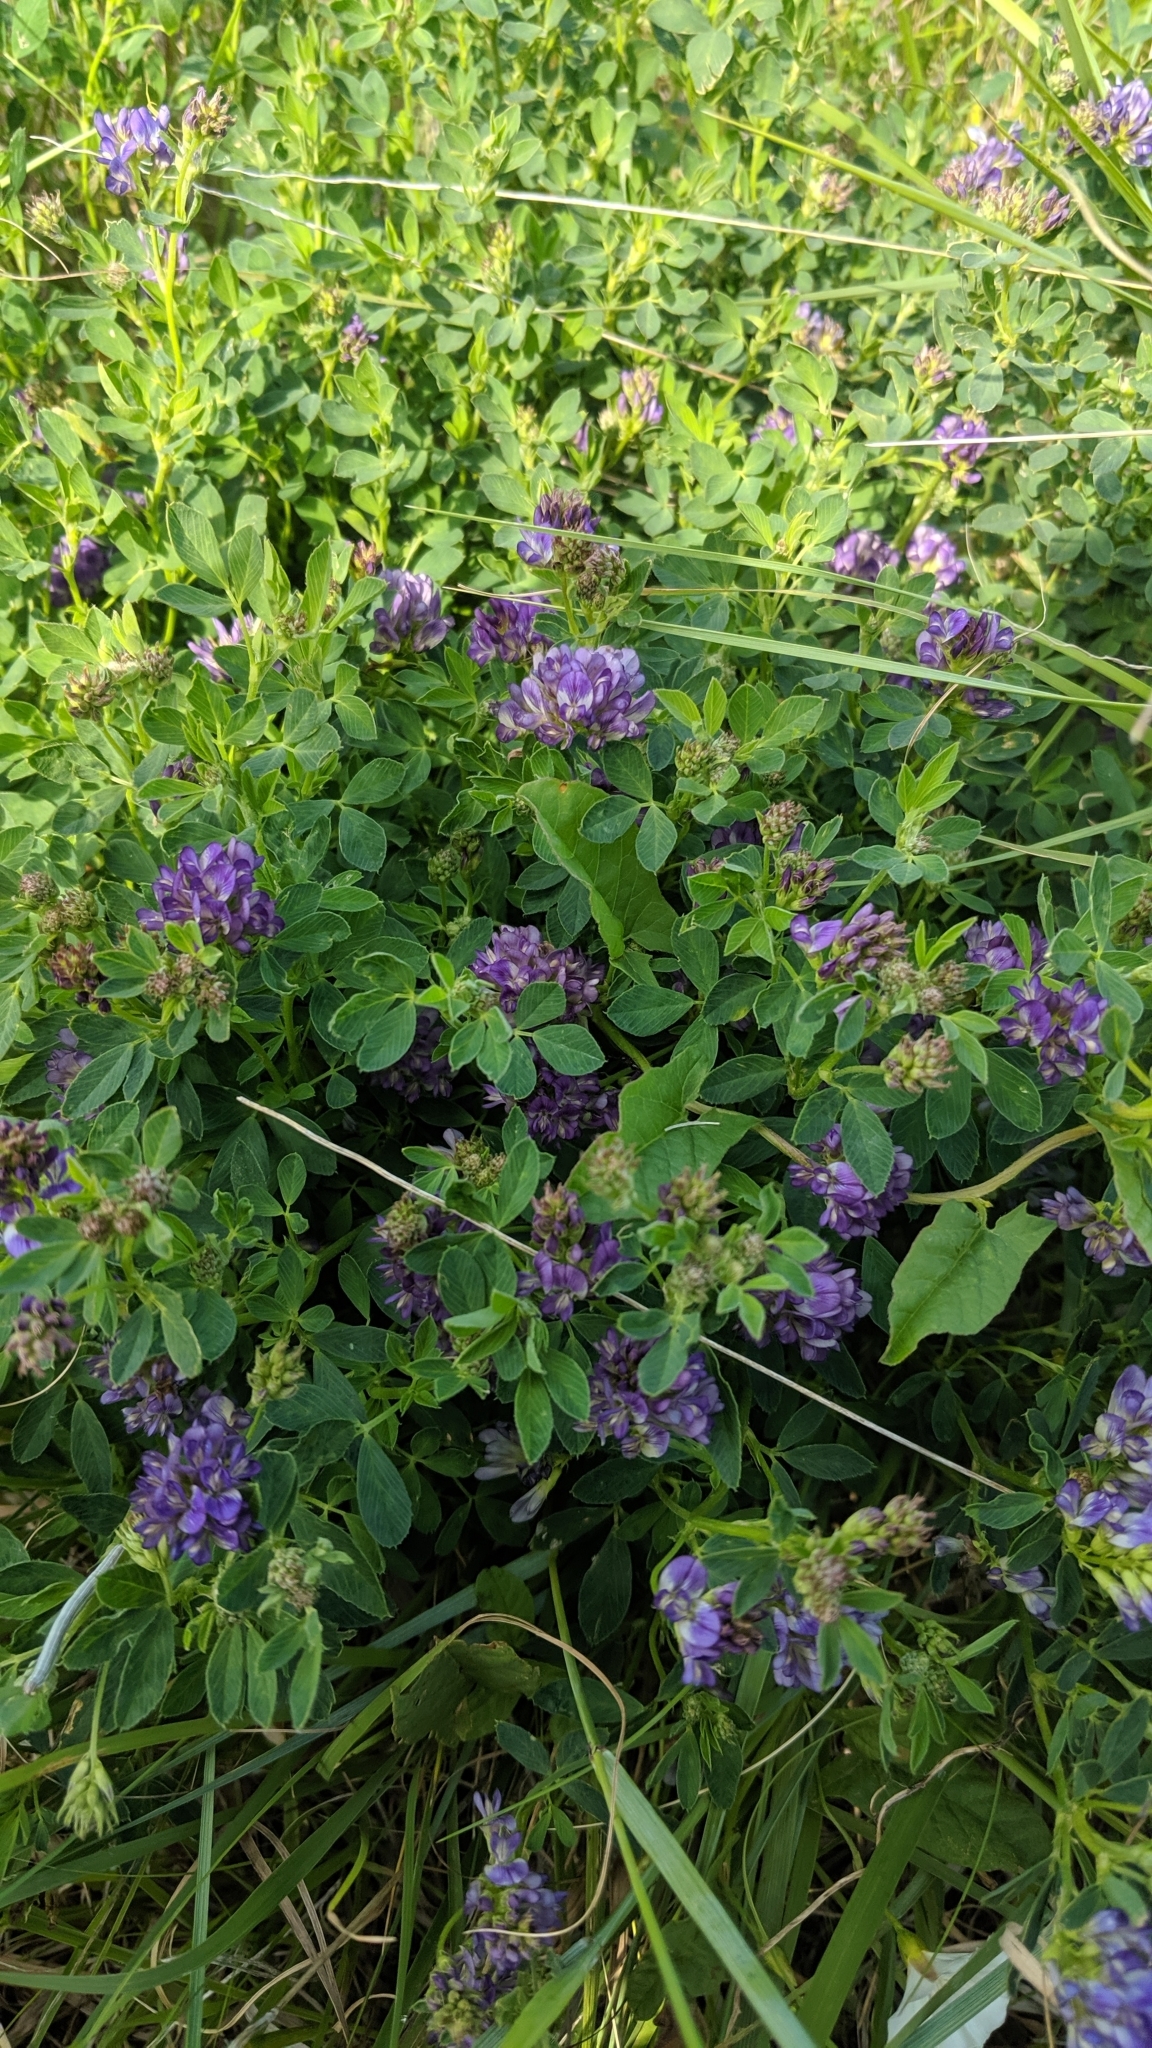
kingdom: Plantae
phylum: Tracheophyta
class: Magnoliopsida
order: Fabales
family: Fabaceae
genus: Medicago
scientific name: Medicago sativa
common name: Alfalfa
